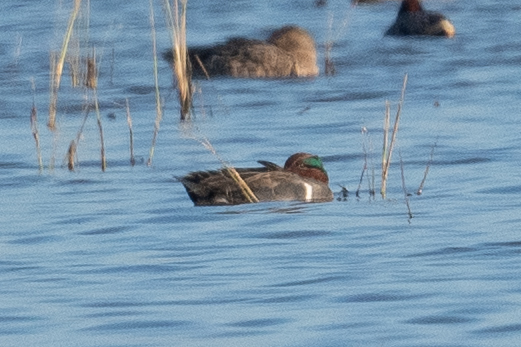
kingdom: Animalia
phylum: Chordata
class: Aves
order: Anseriformes
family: Anatidae
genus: Anas
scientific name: Anas crecca
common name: Eurasian teal
